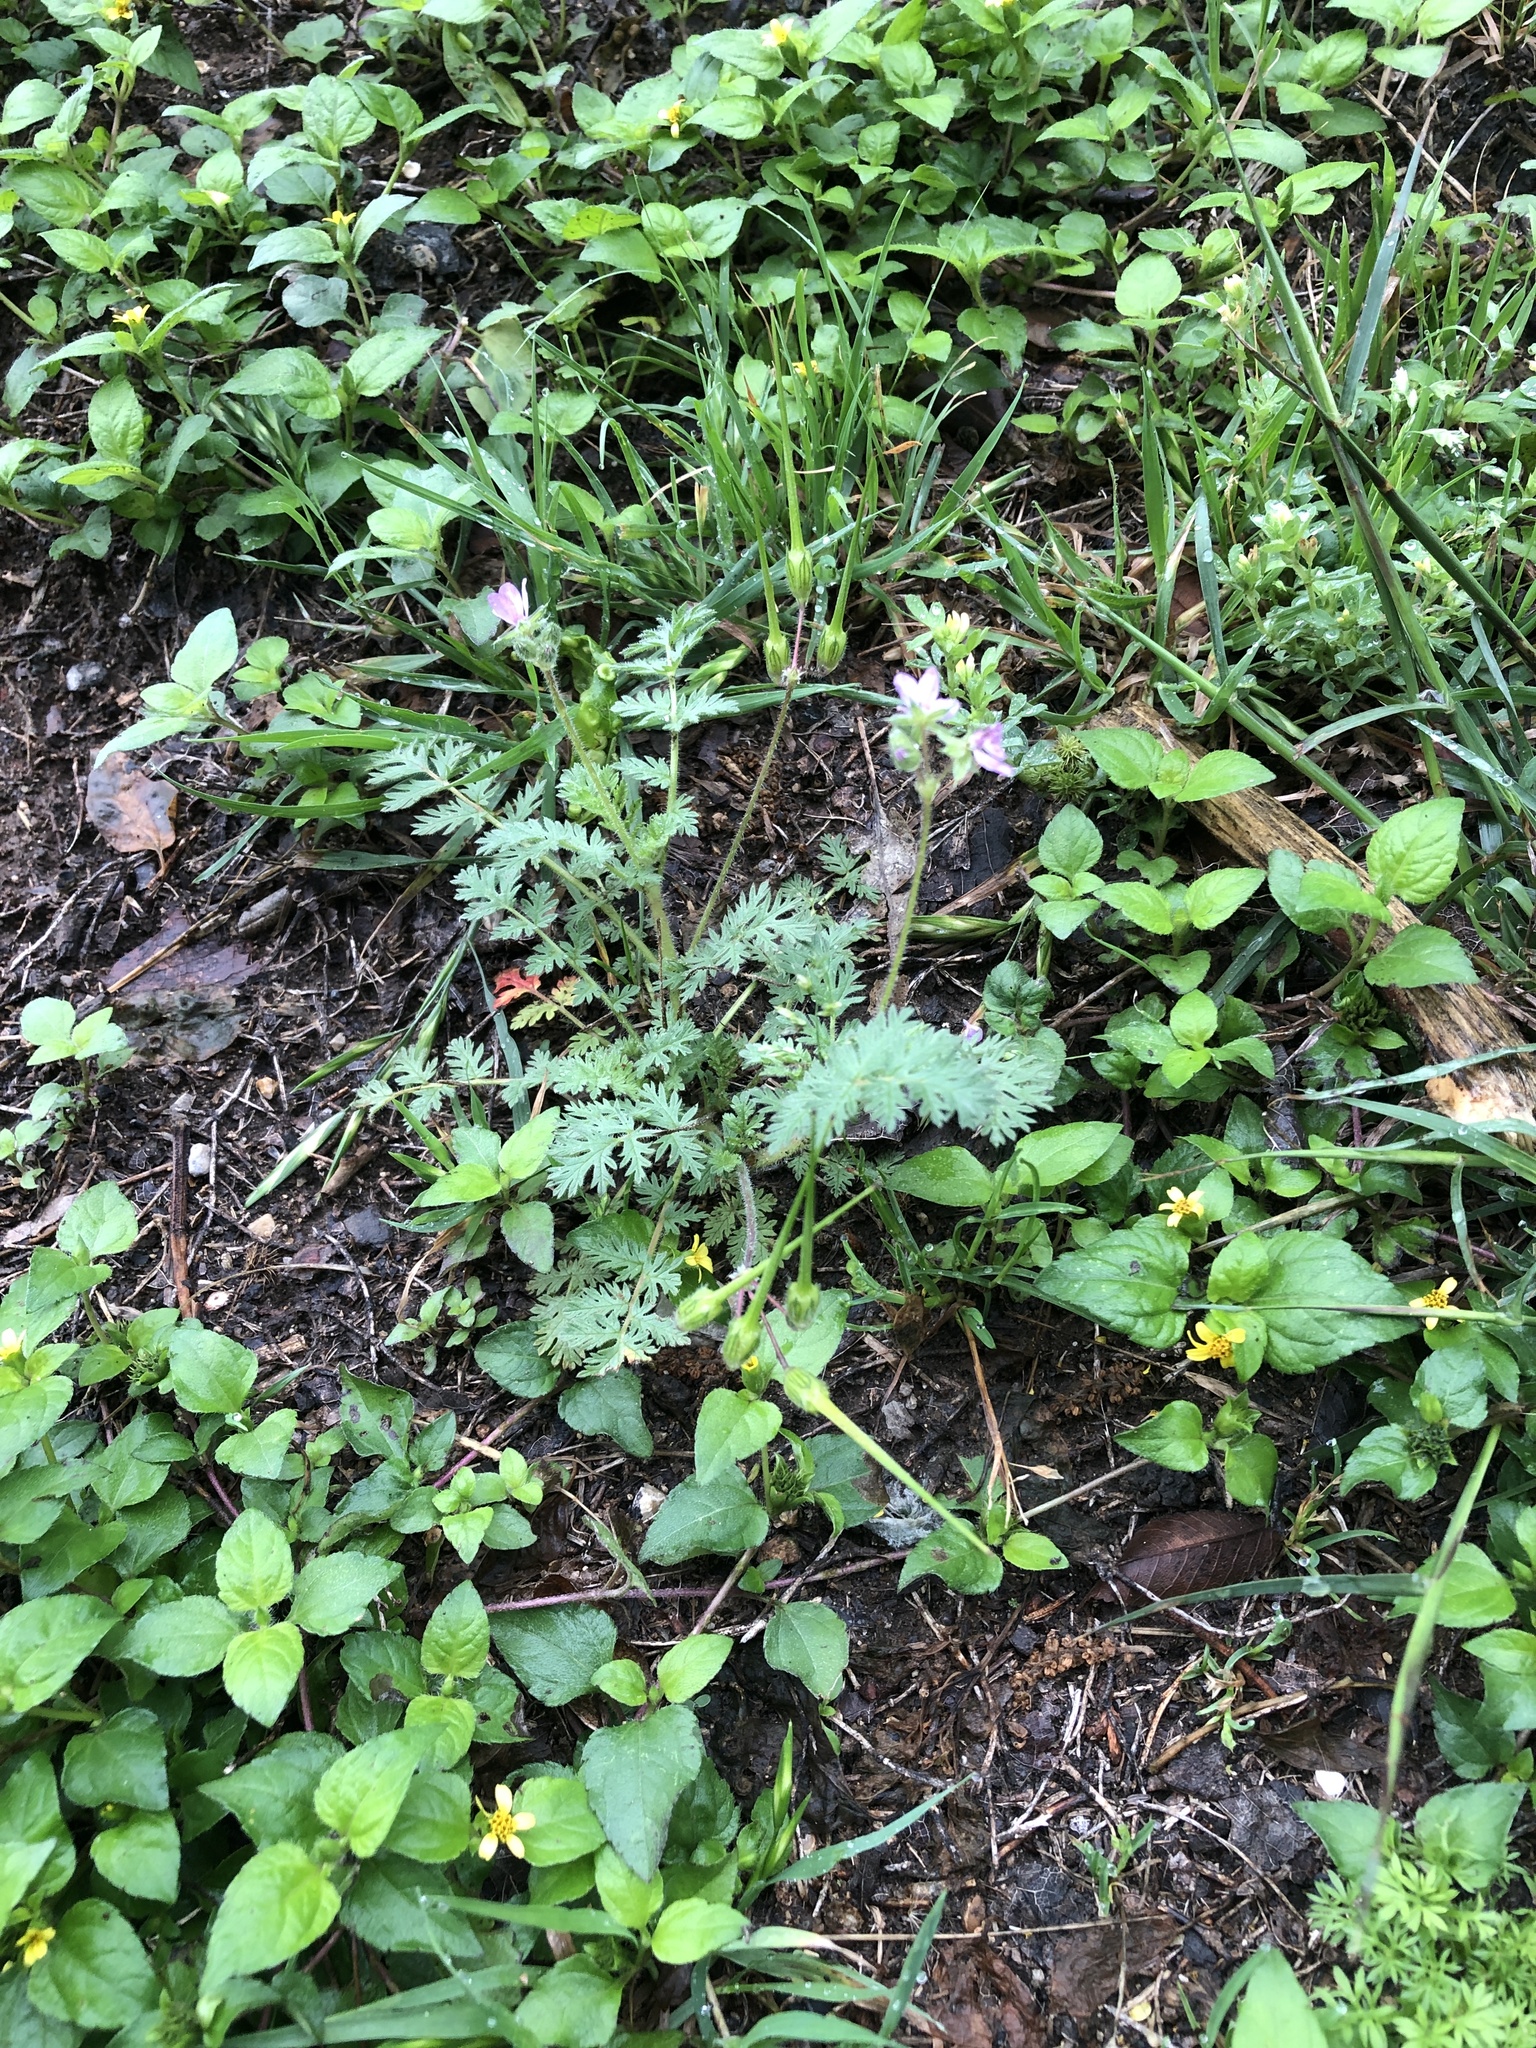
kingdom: Plantae
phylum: Tracheophyta
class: Magnoliopsida
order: Geraniales
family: Geraniaceae
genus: Erodium
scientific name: Erodium cicutarium
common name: Common stork's-bill
